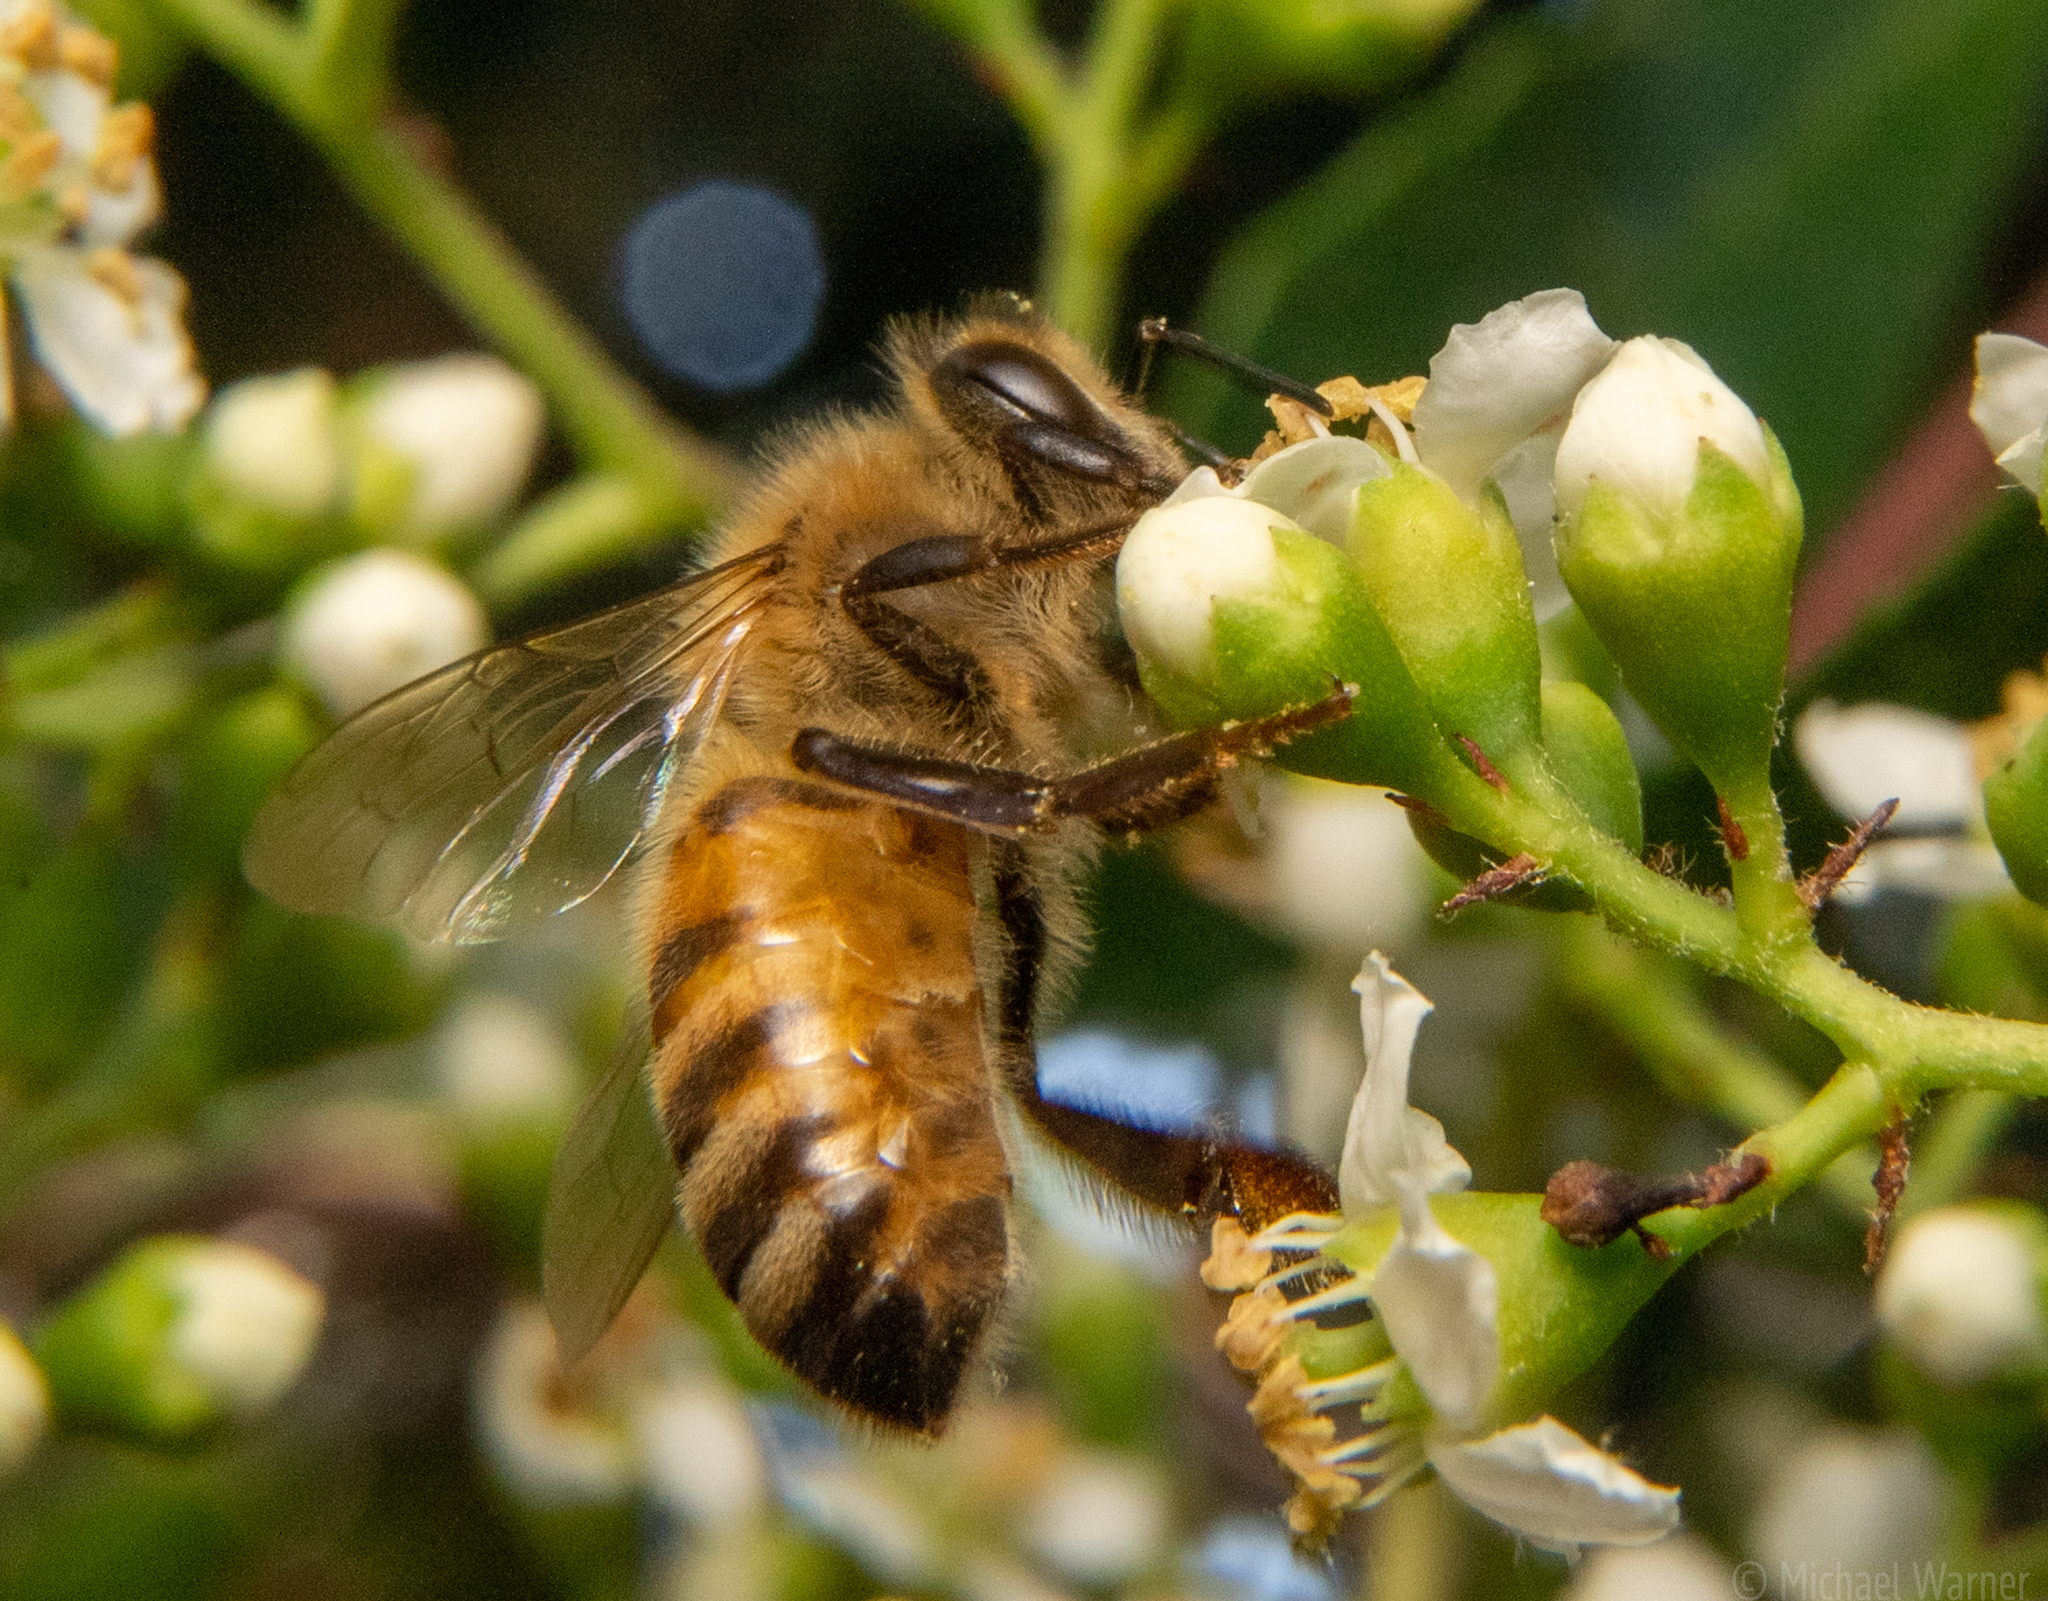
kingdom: Animalia
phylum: Arthropoda
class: Insecta
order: Hymenoptera
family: Apidae
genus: Apis
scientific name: Apis mellifera
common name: Honey bee
